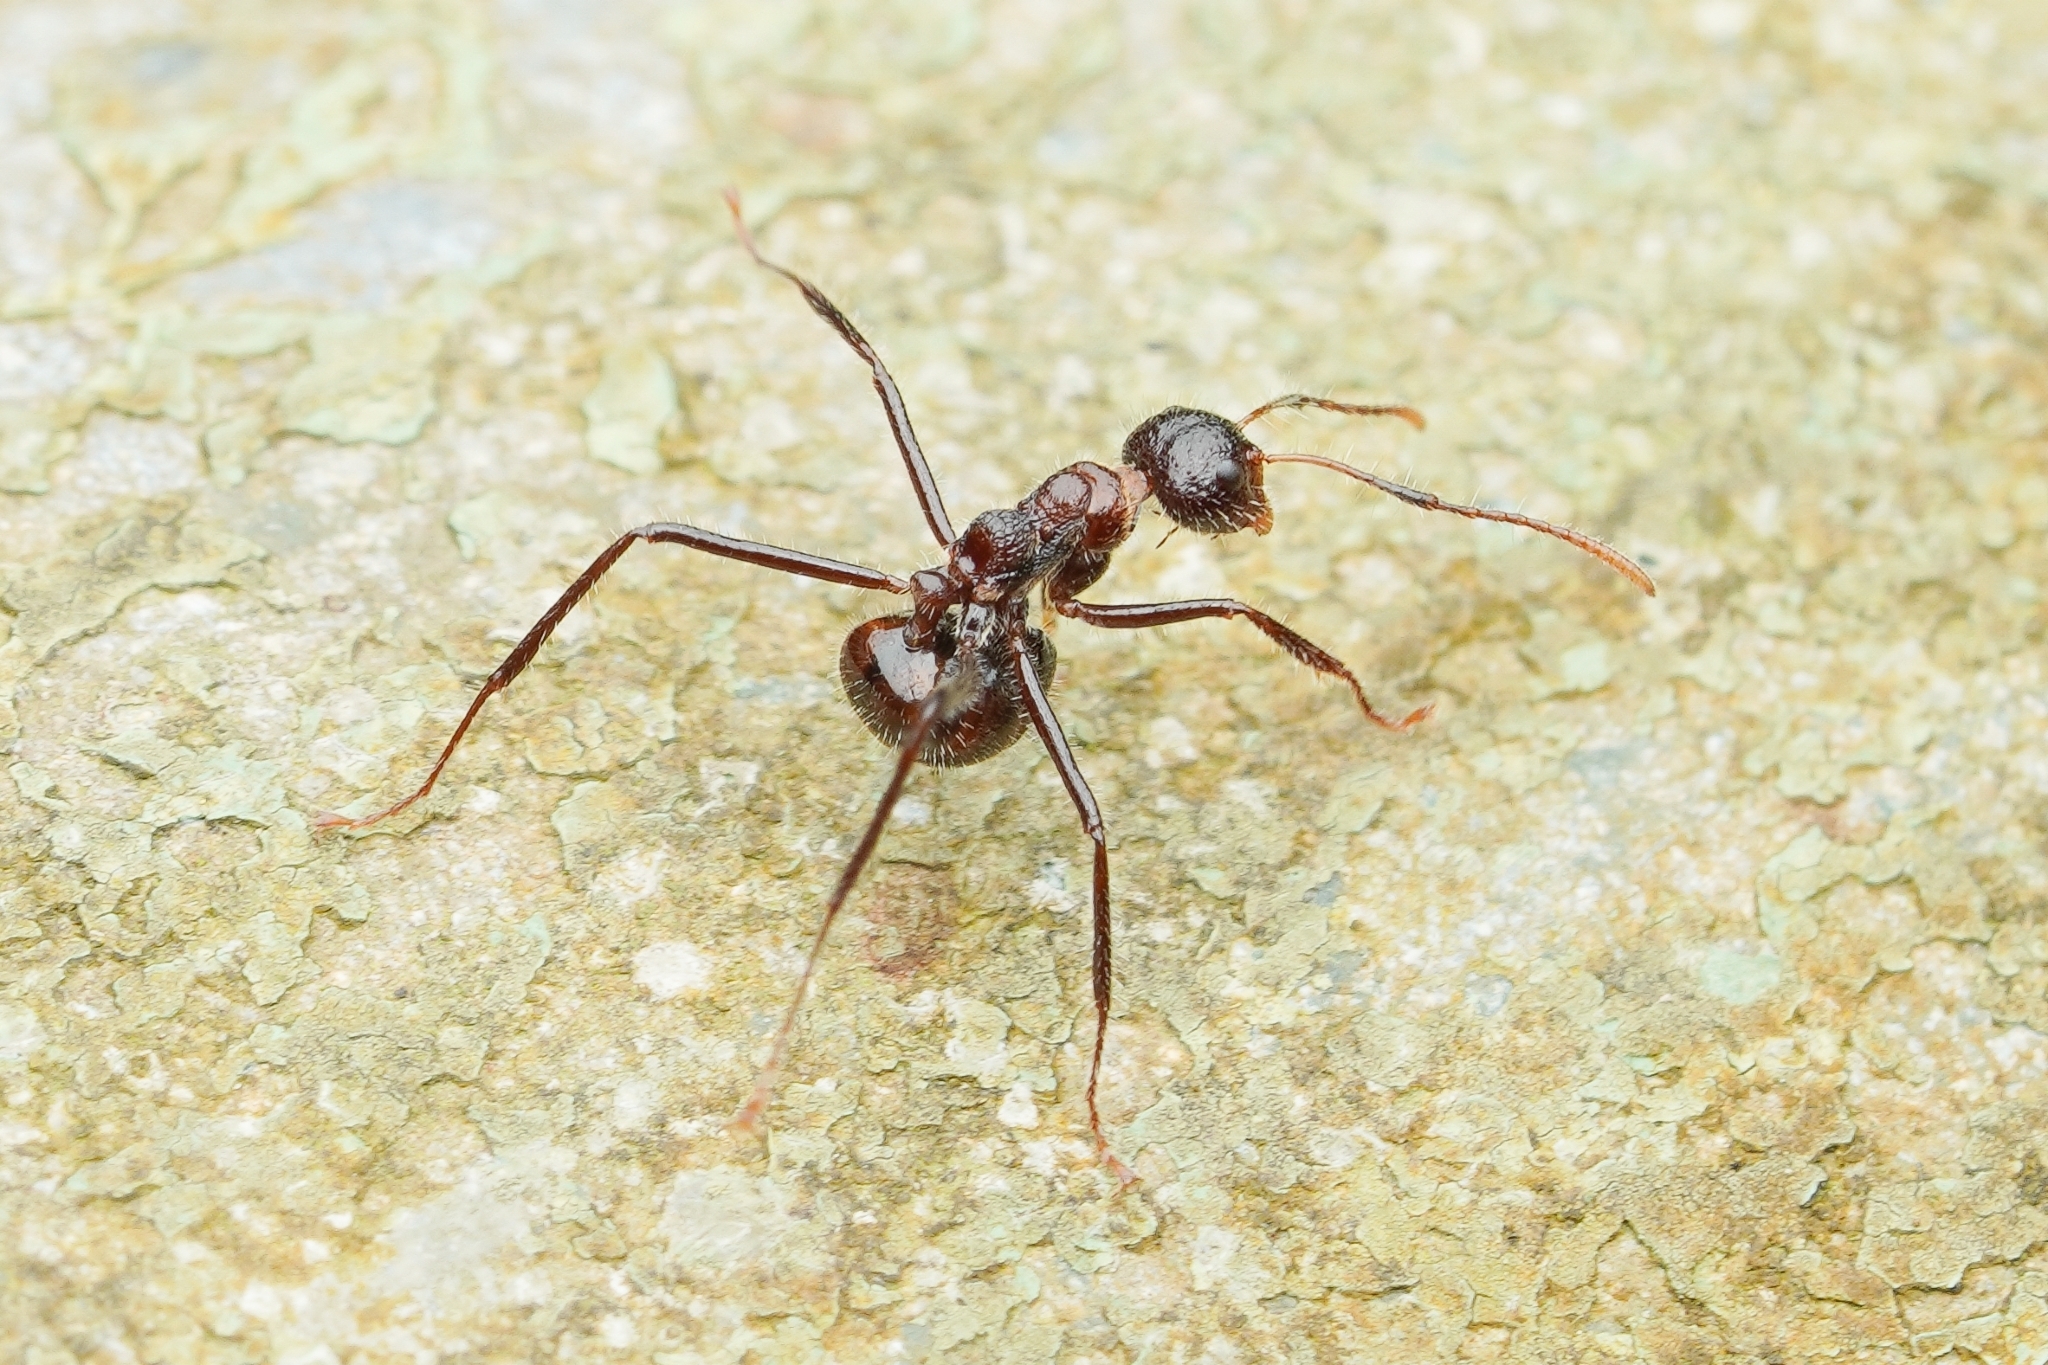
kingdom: Animalia
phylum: Arthropoda
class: Insecta
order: Hymenoptera
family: Formicidae
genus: Dolichoderus
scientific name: Dolichoderus
